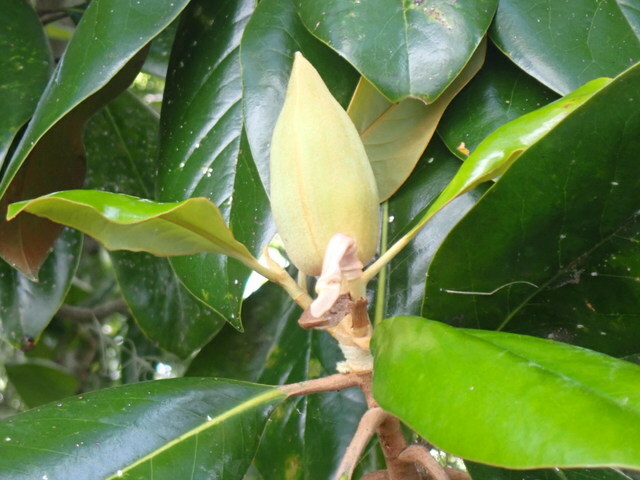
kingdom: Plantae
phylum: Tracheophyta
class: Magnoliopsida
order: Magnoliales
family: Magnoliaceae
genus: Magnolia
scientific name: Magnolia grandiflora
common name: Southern magnolia
